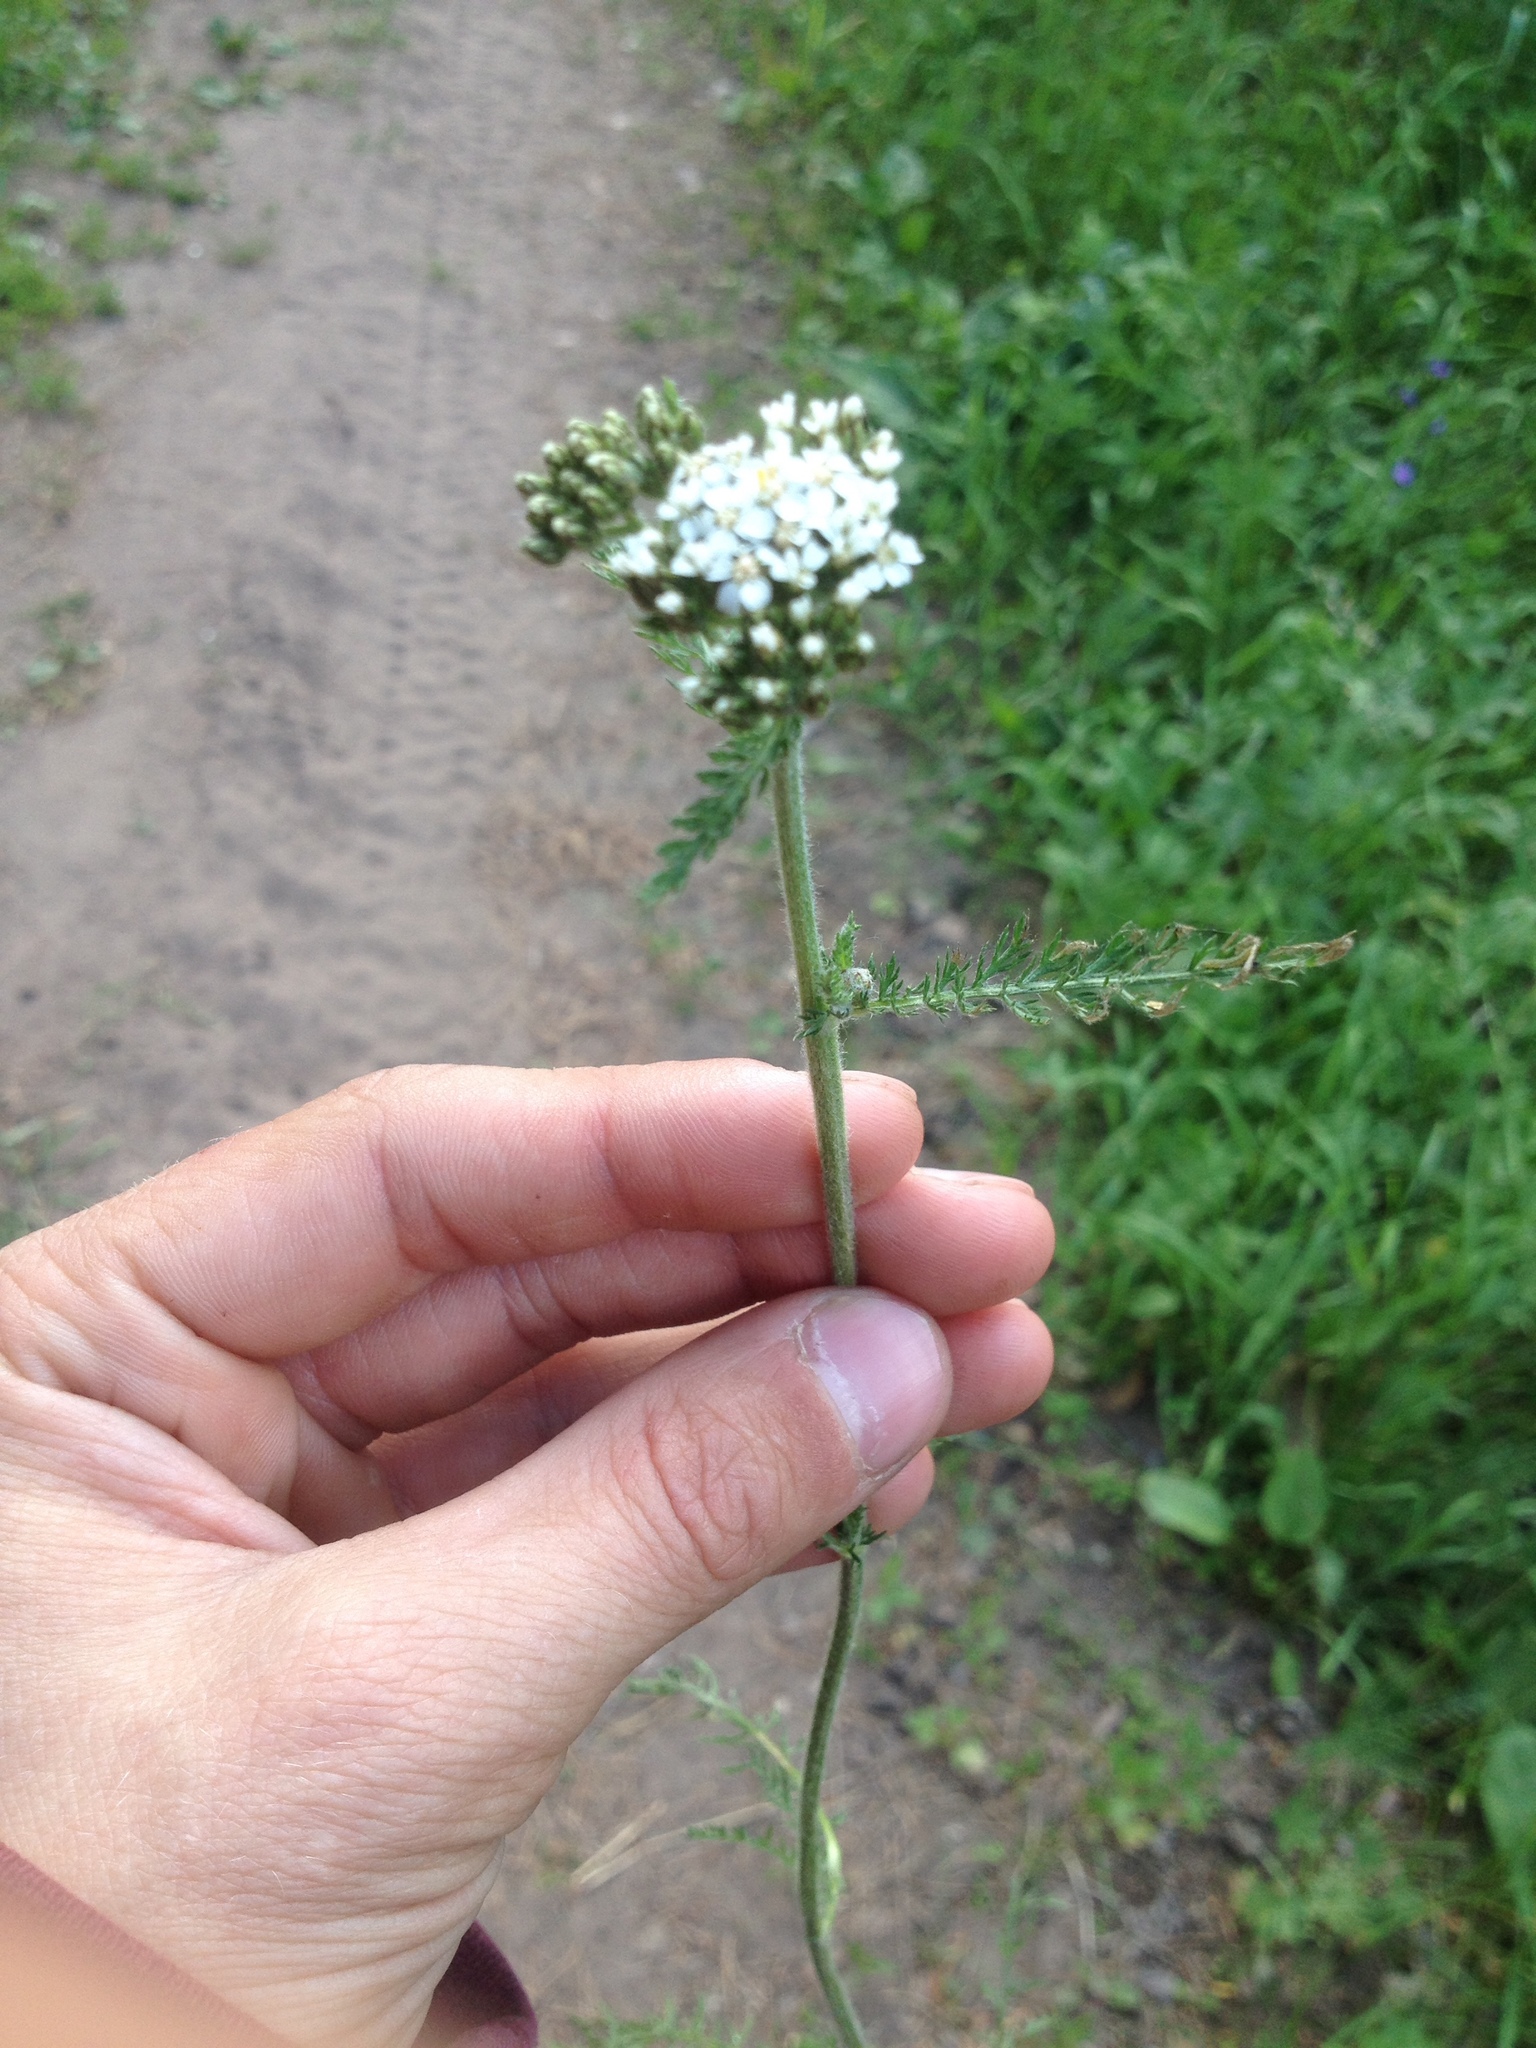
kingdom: Plantae
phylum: Tracheophyta
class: Magnoliopsida
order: Asterales
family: Asteraceae
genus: Achillea
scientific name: Achillea millefolium
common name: Yarrow
